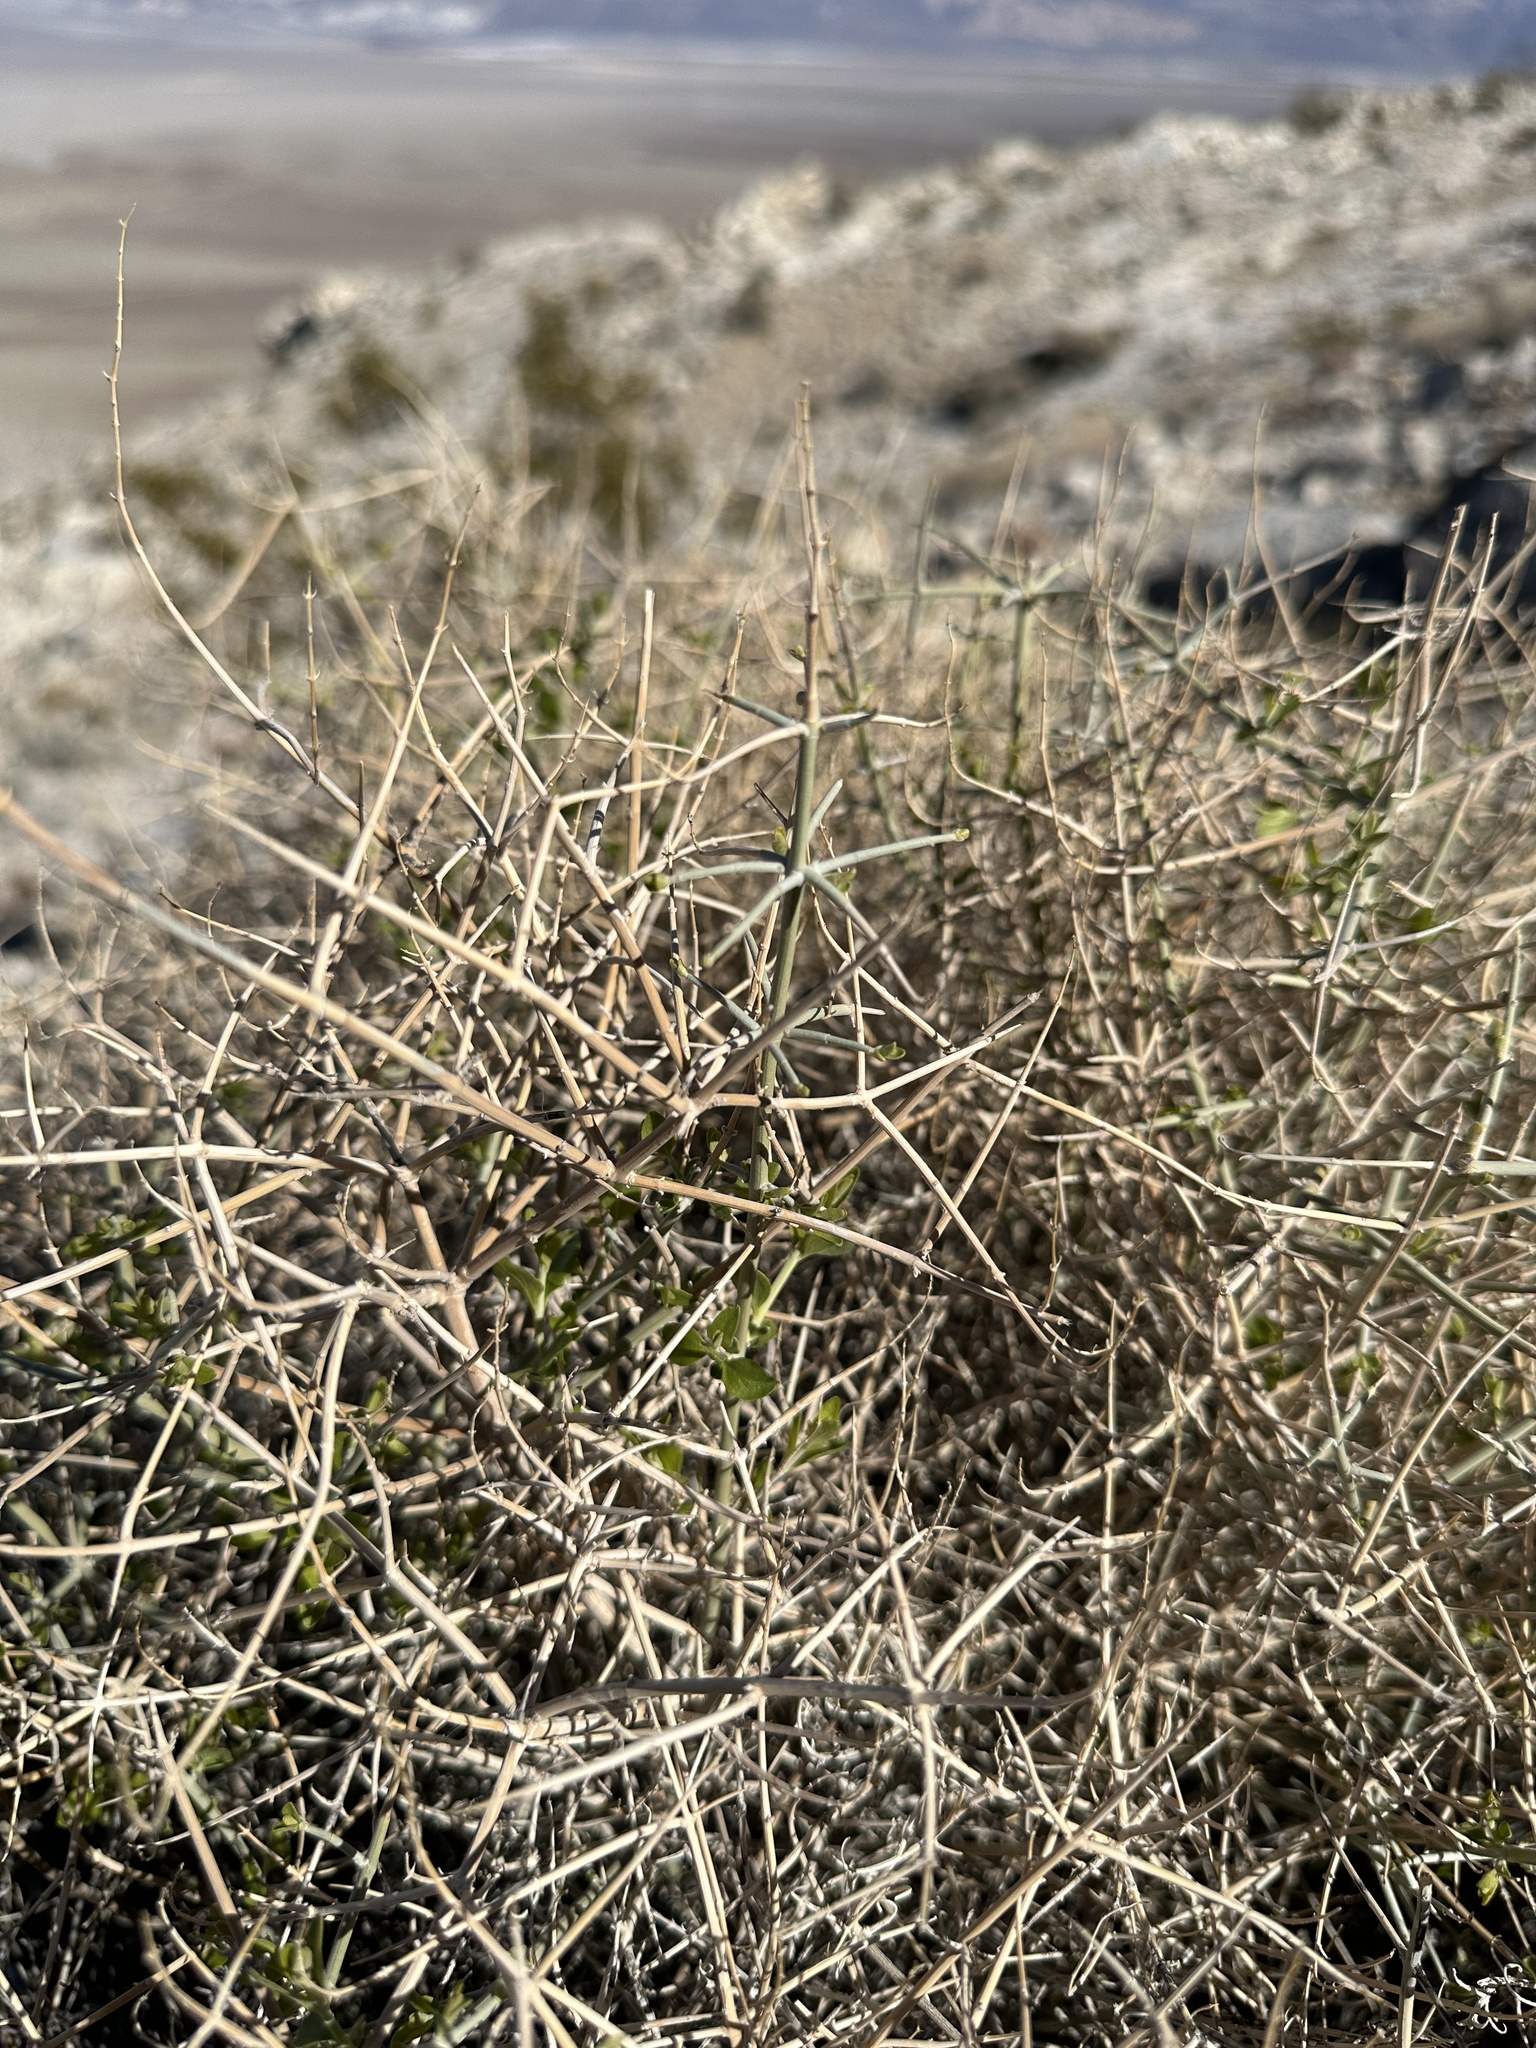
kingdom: Plantae
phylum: Tracheophyta
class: Magnoliopsida
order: Lamiales
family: Lamiaceae
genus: Scutellaria
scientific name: Scutellaria mexicana
